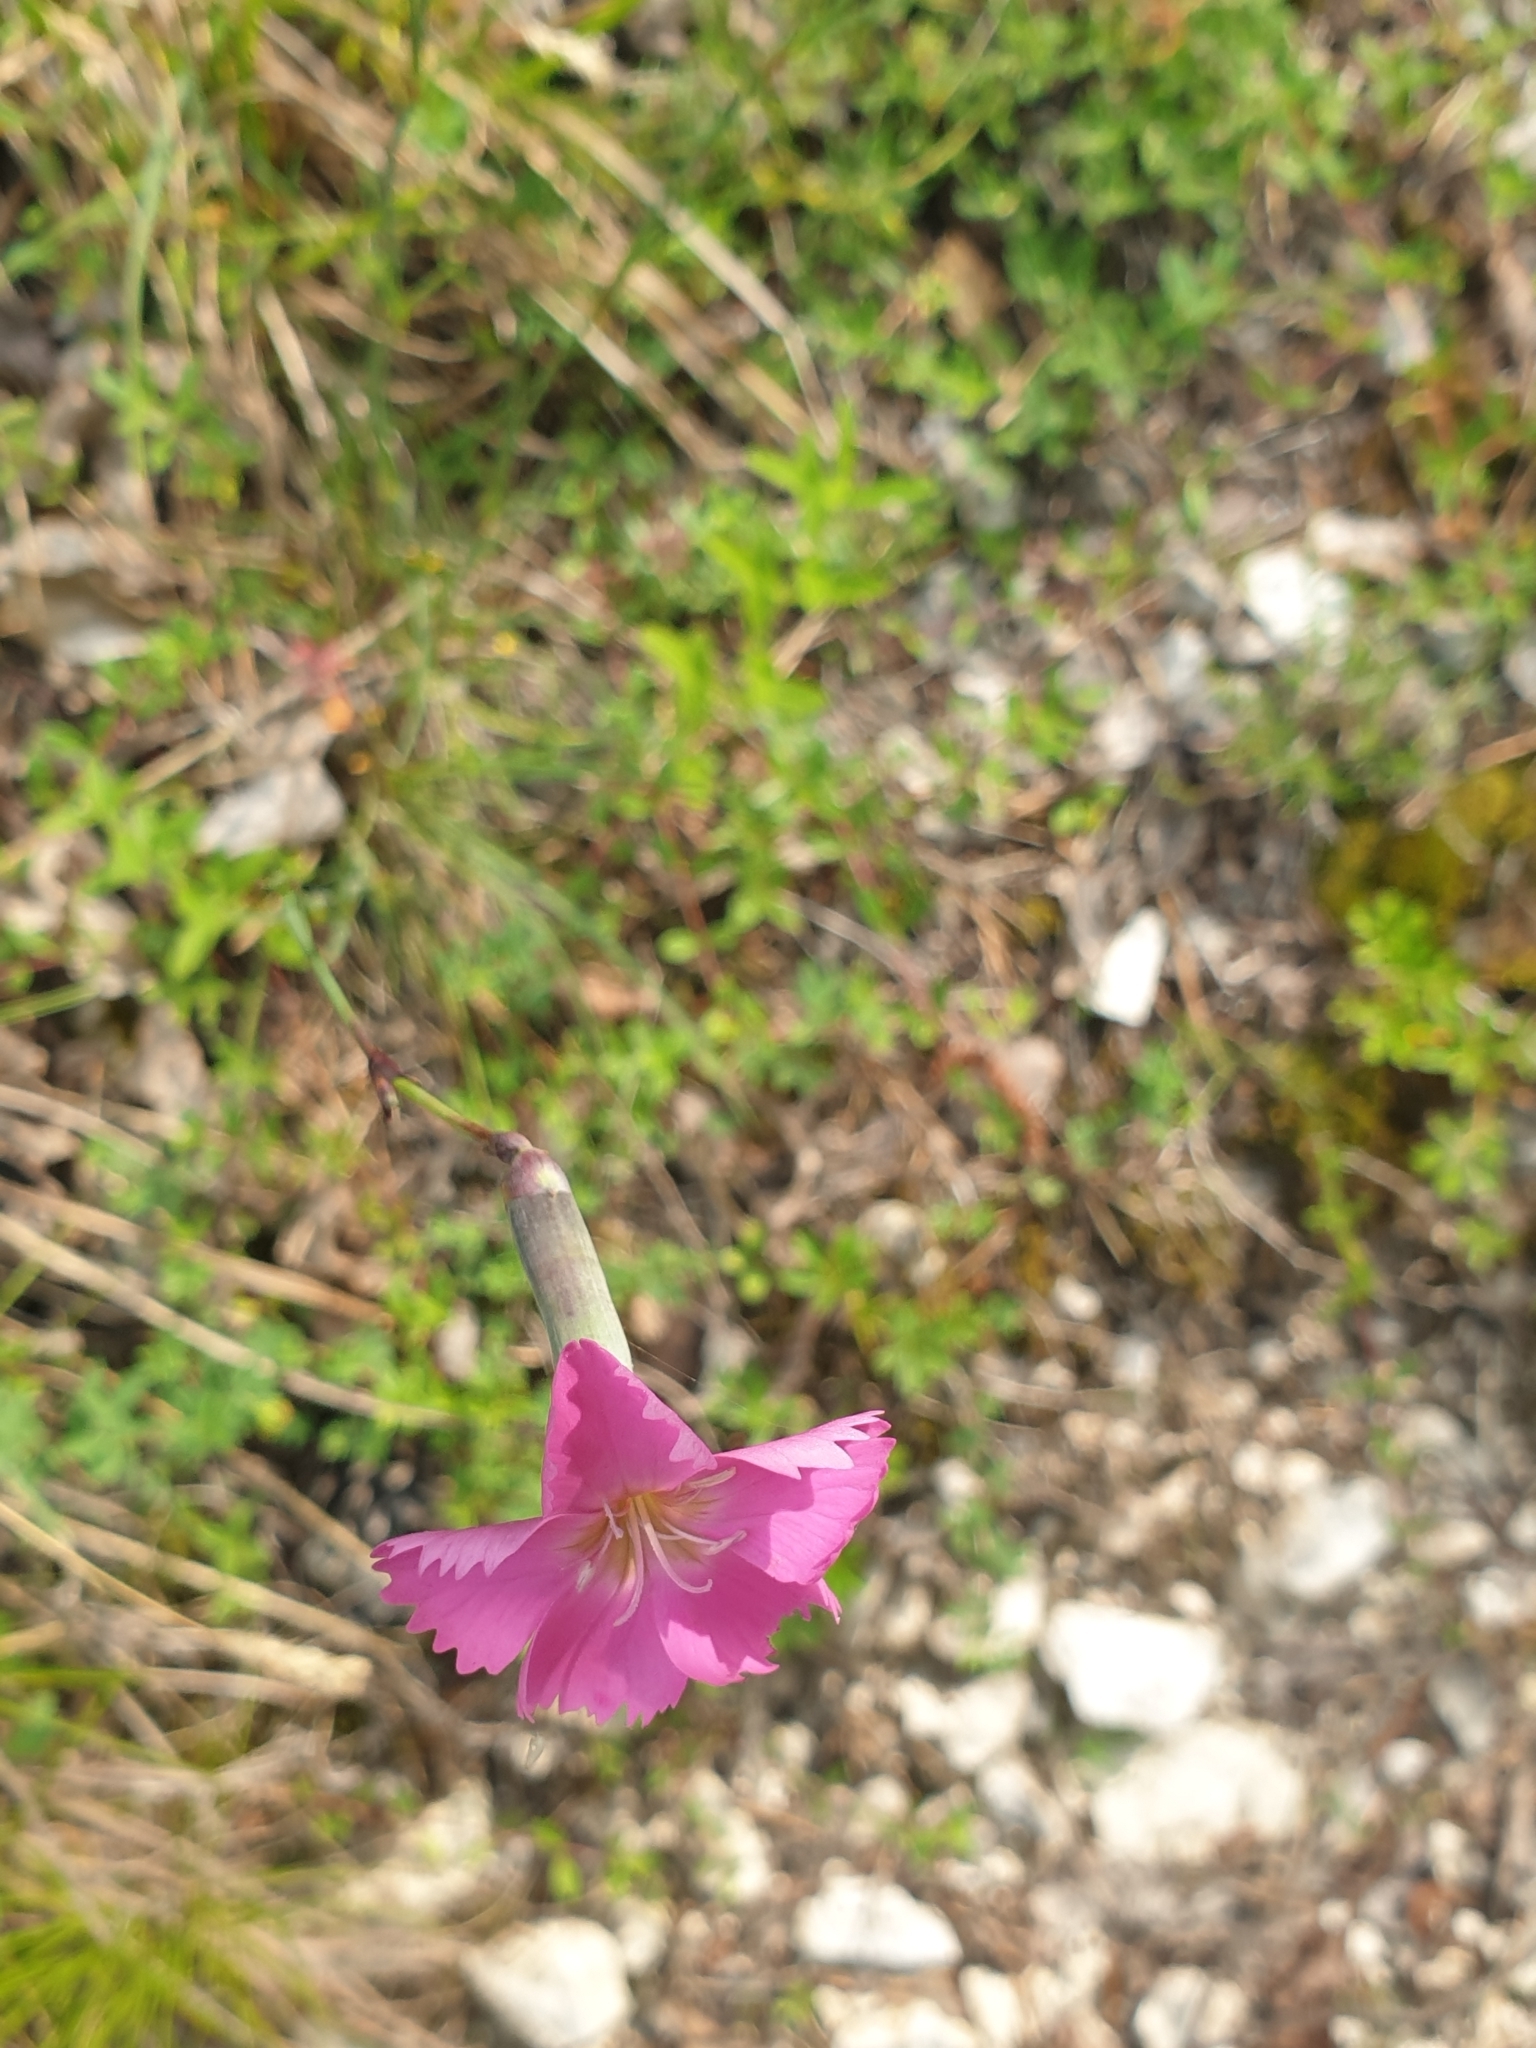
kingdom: Plantae
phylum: Tracheophyta
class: Magnoliopsida
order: Caryophyllales
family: Caryophyllaceae
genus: Dianthus
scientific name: Dianthus sylvestris
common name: Wood pink
